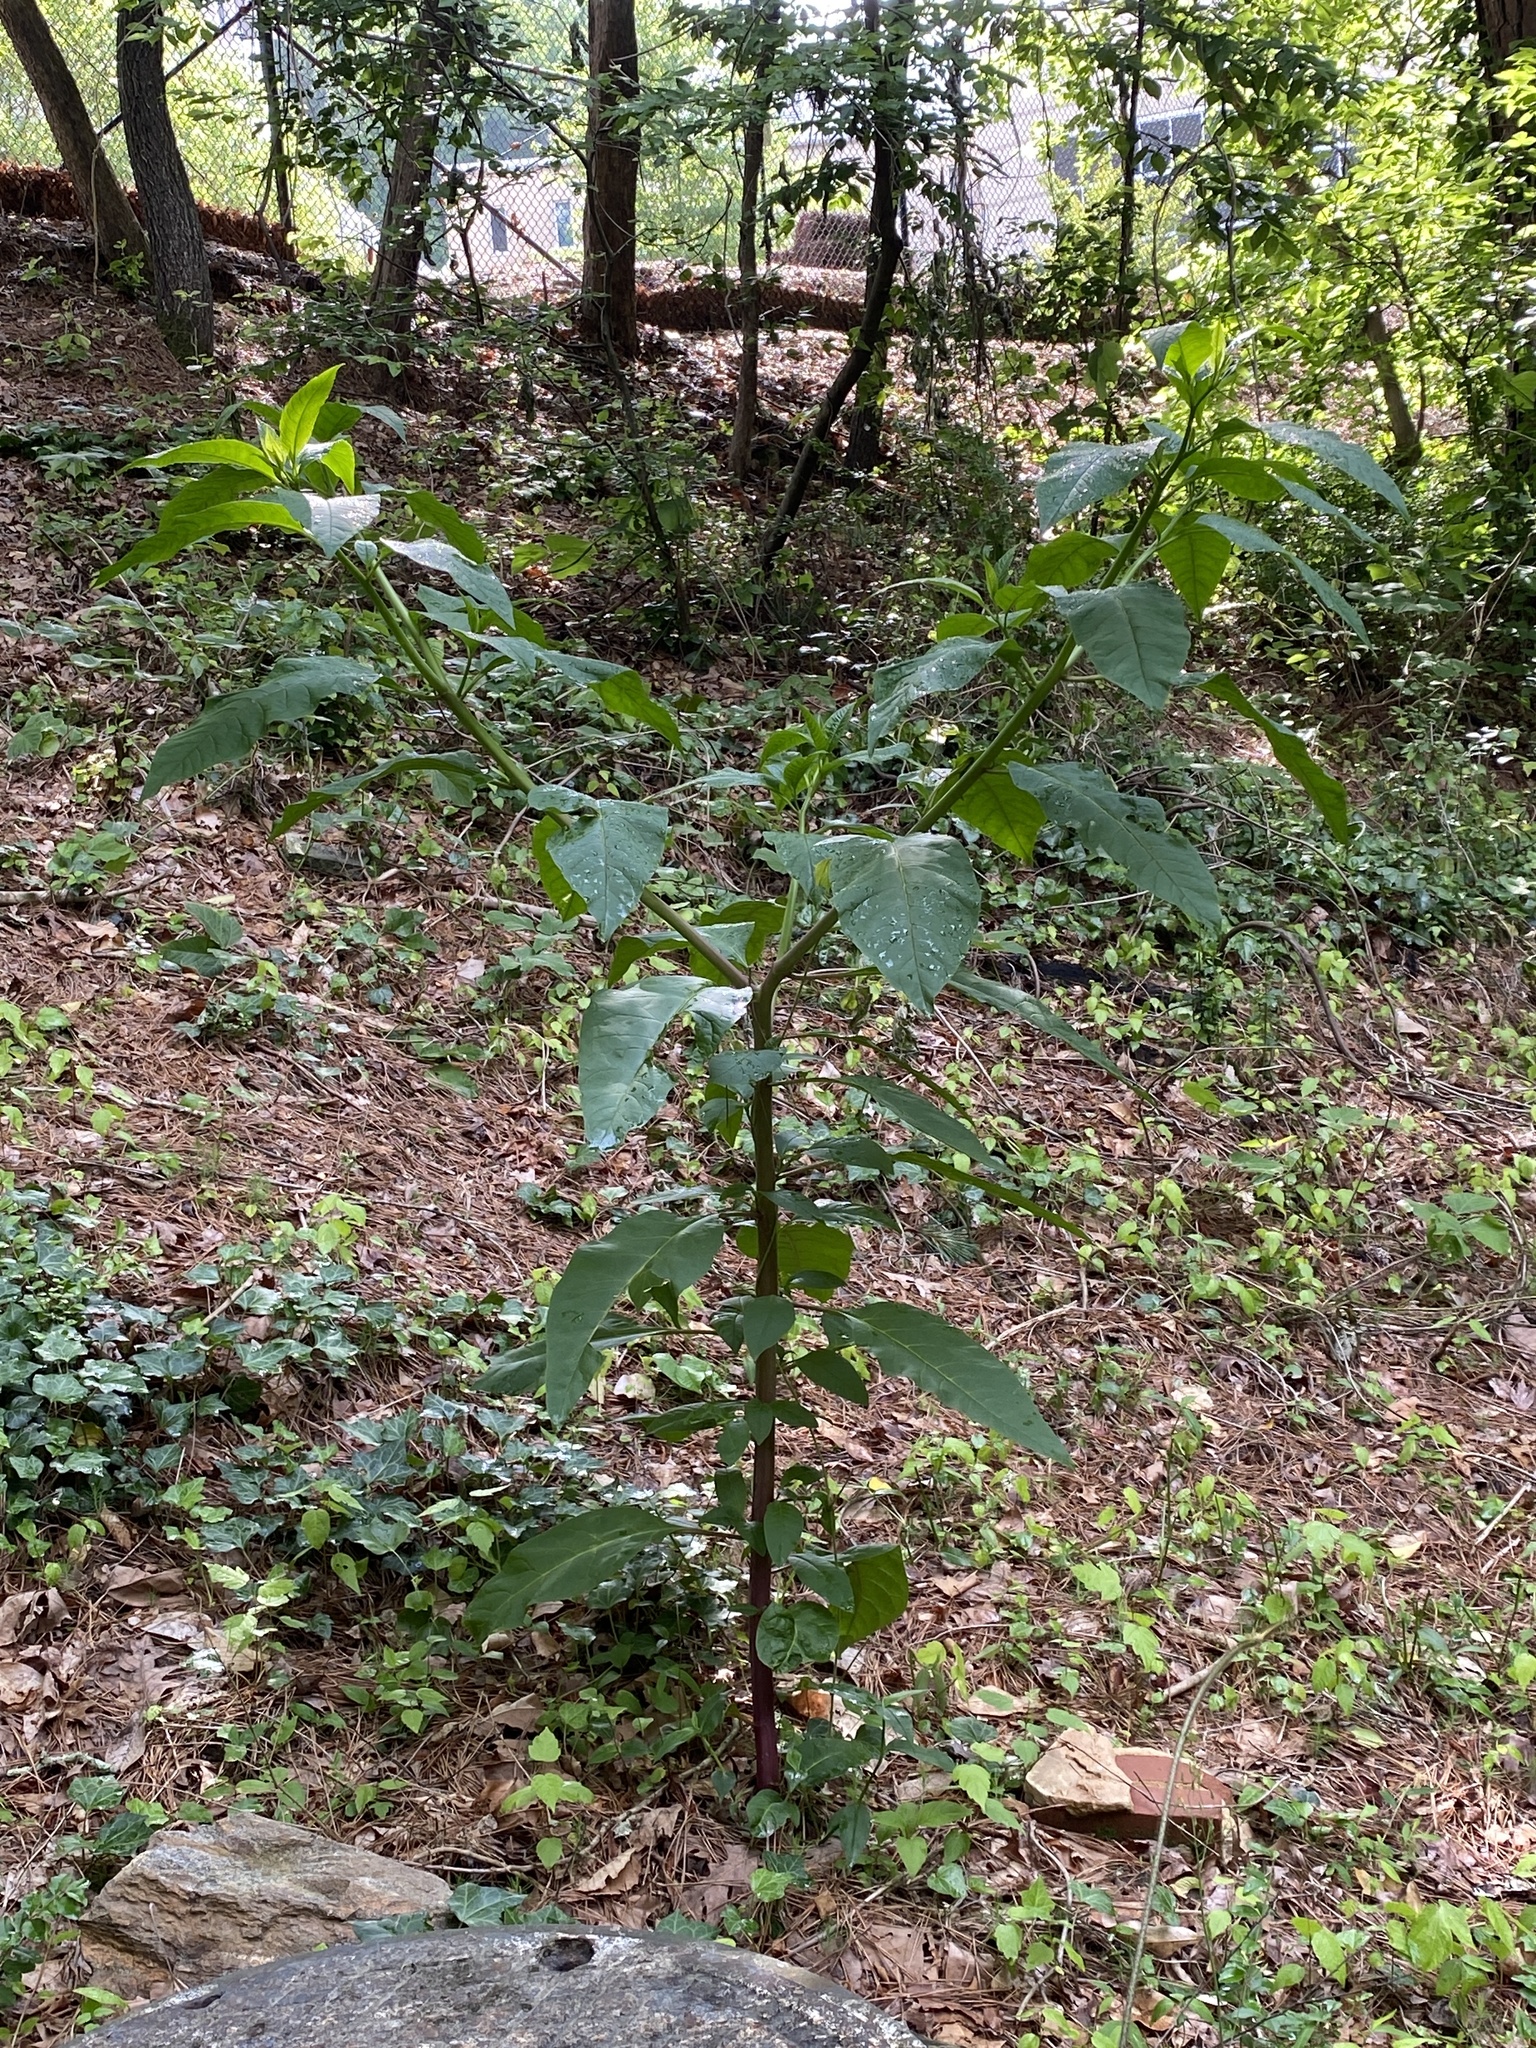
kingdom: Plantae
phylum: Tracheophyta
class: Magnoliopsida
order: Caryophyllales
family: Phytolaccaceae
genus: Phytolacca
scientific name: Phytolacca americana
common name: American pokeweed
